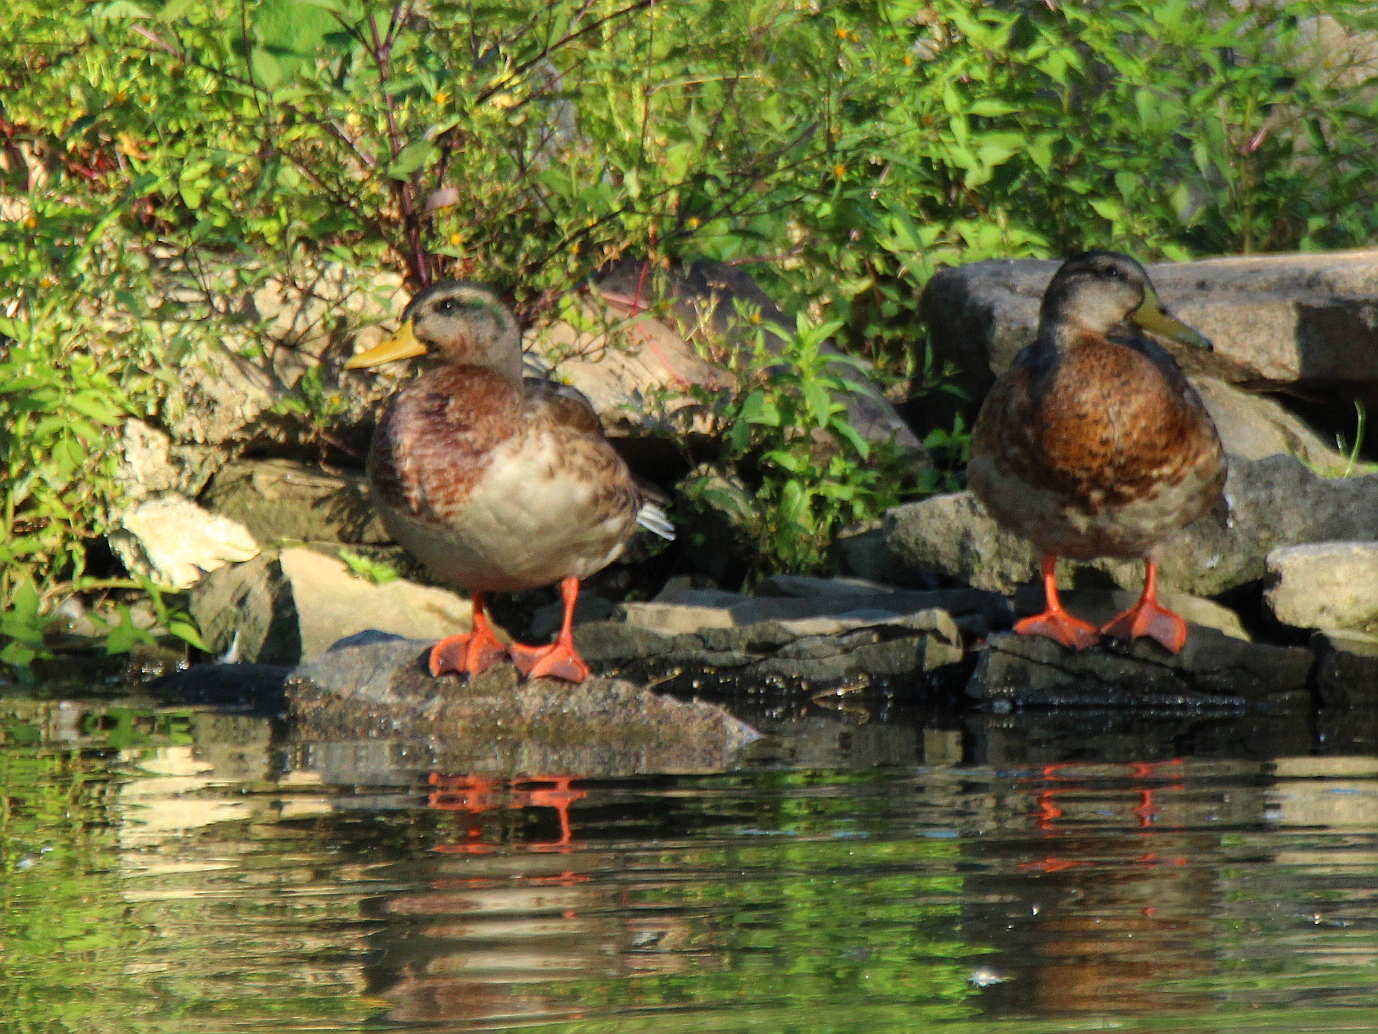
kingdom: Animalia
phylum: Chordata
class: Aves
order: Anseriformes
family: Anatidae
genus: Anas
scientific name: Anas platyrhynchos
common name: Mallard
